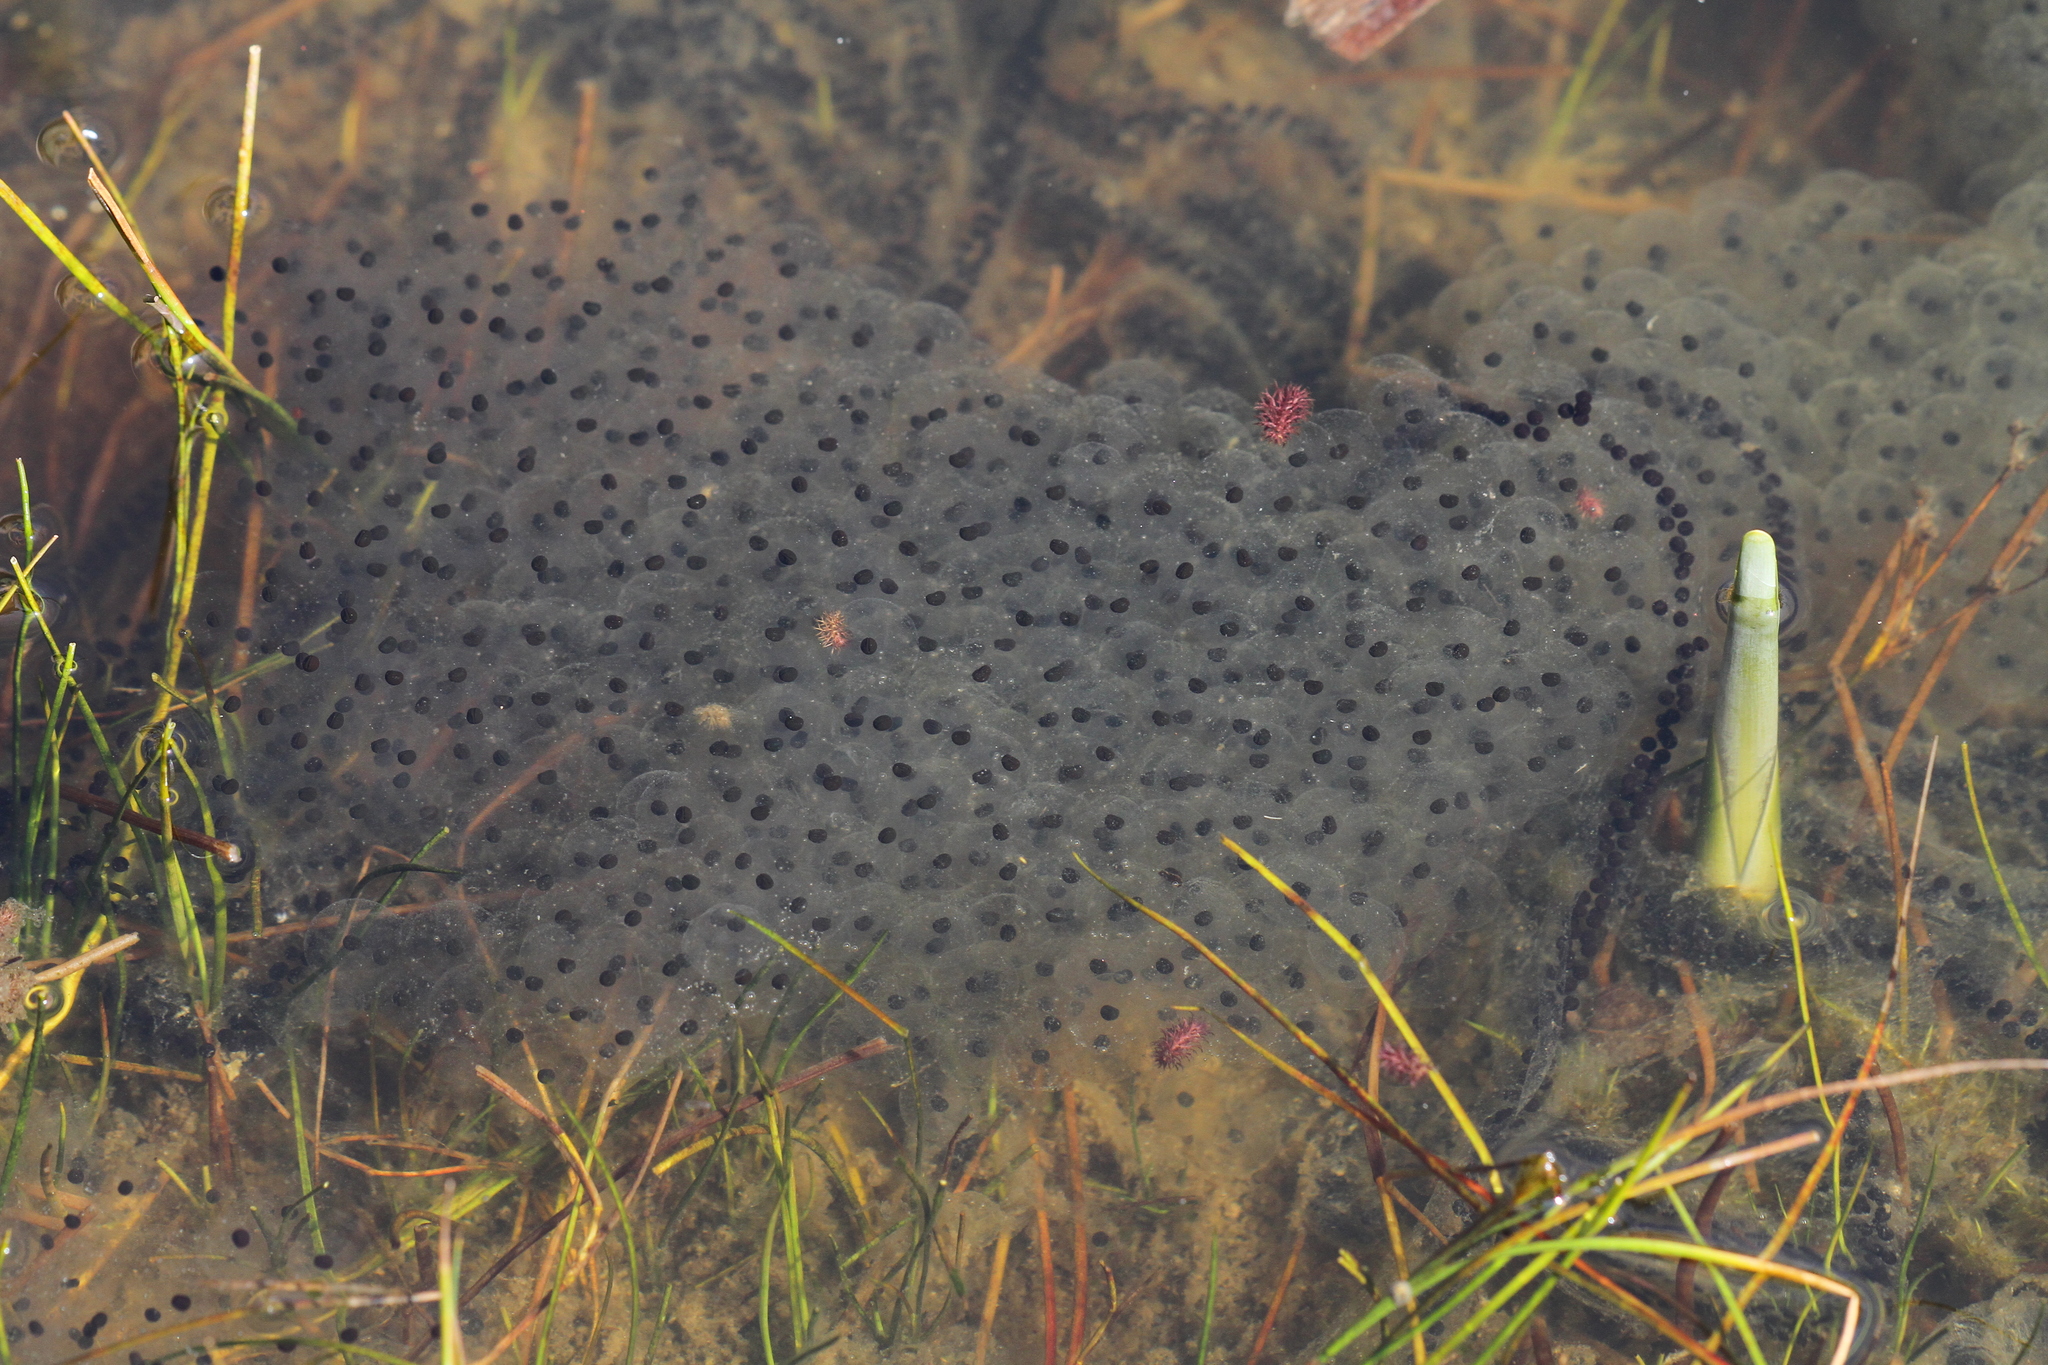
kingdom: Animalia
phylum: Chordata
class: Amphibia
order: Anura
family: Ranidae
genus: Rana
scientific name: Rana temporaria
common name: Common frog
